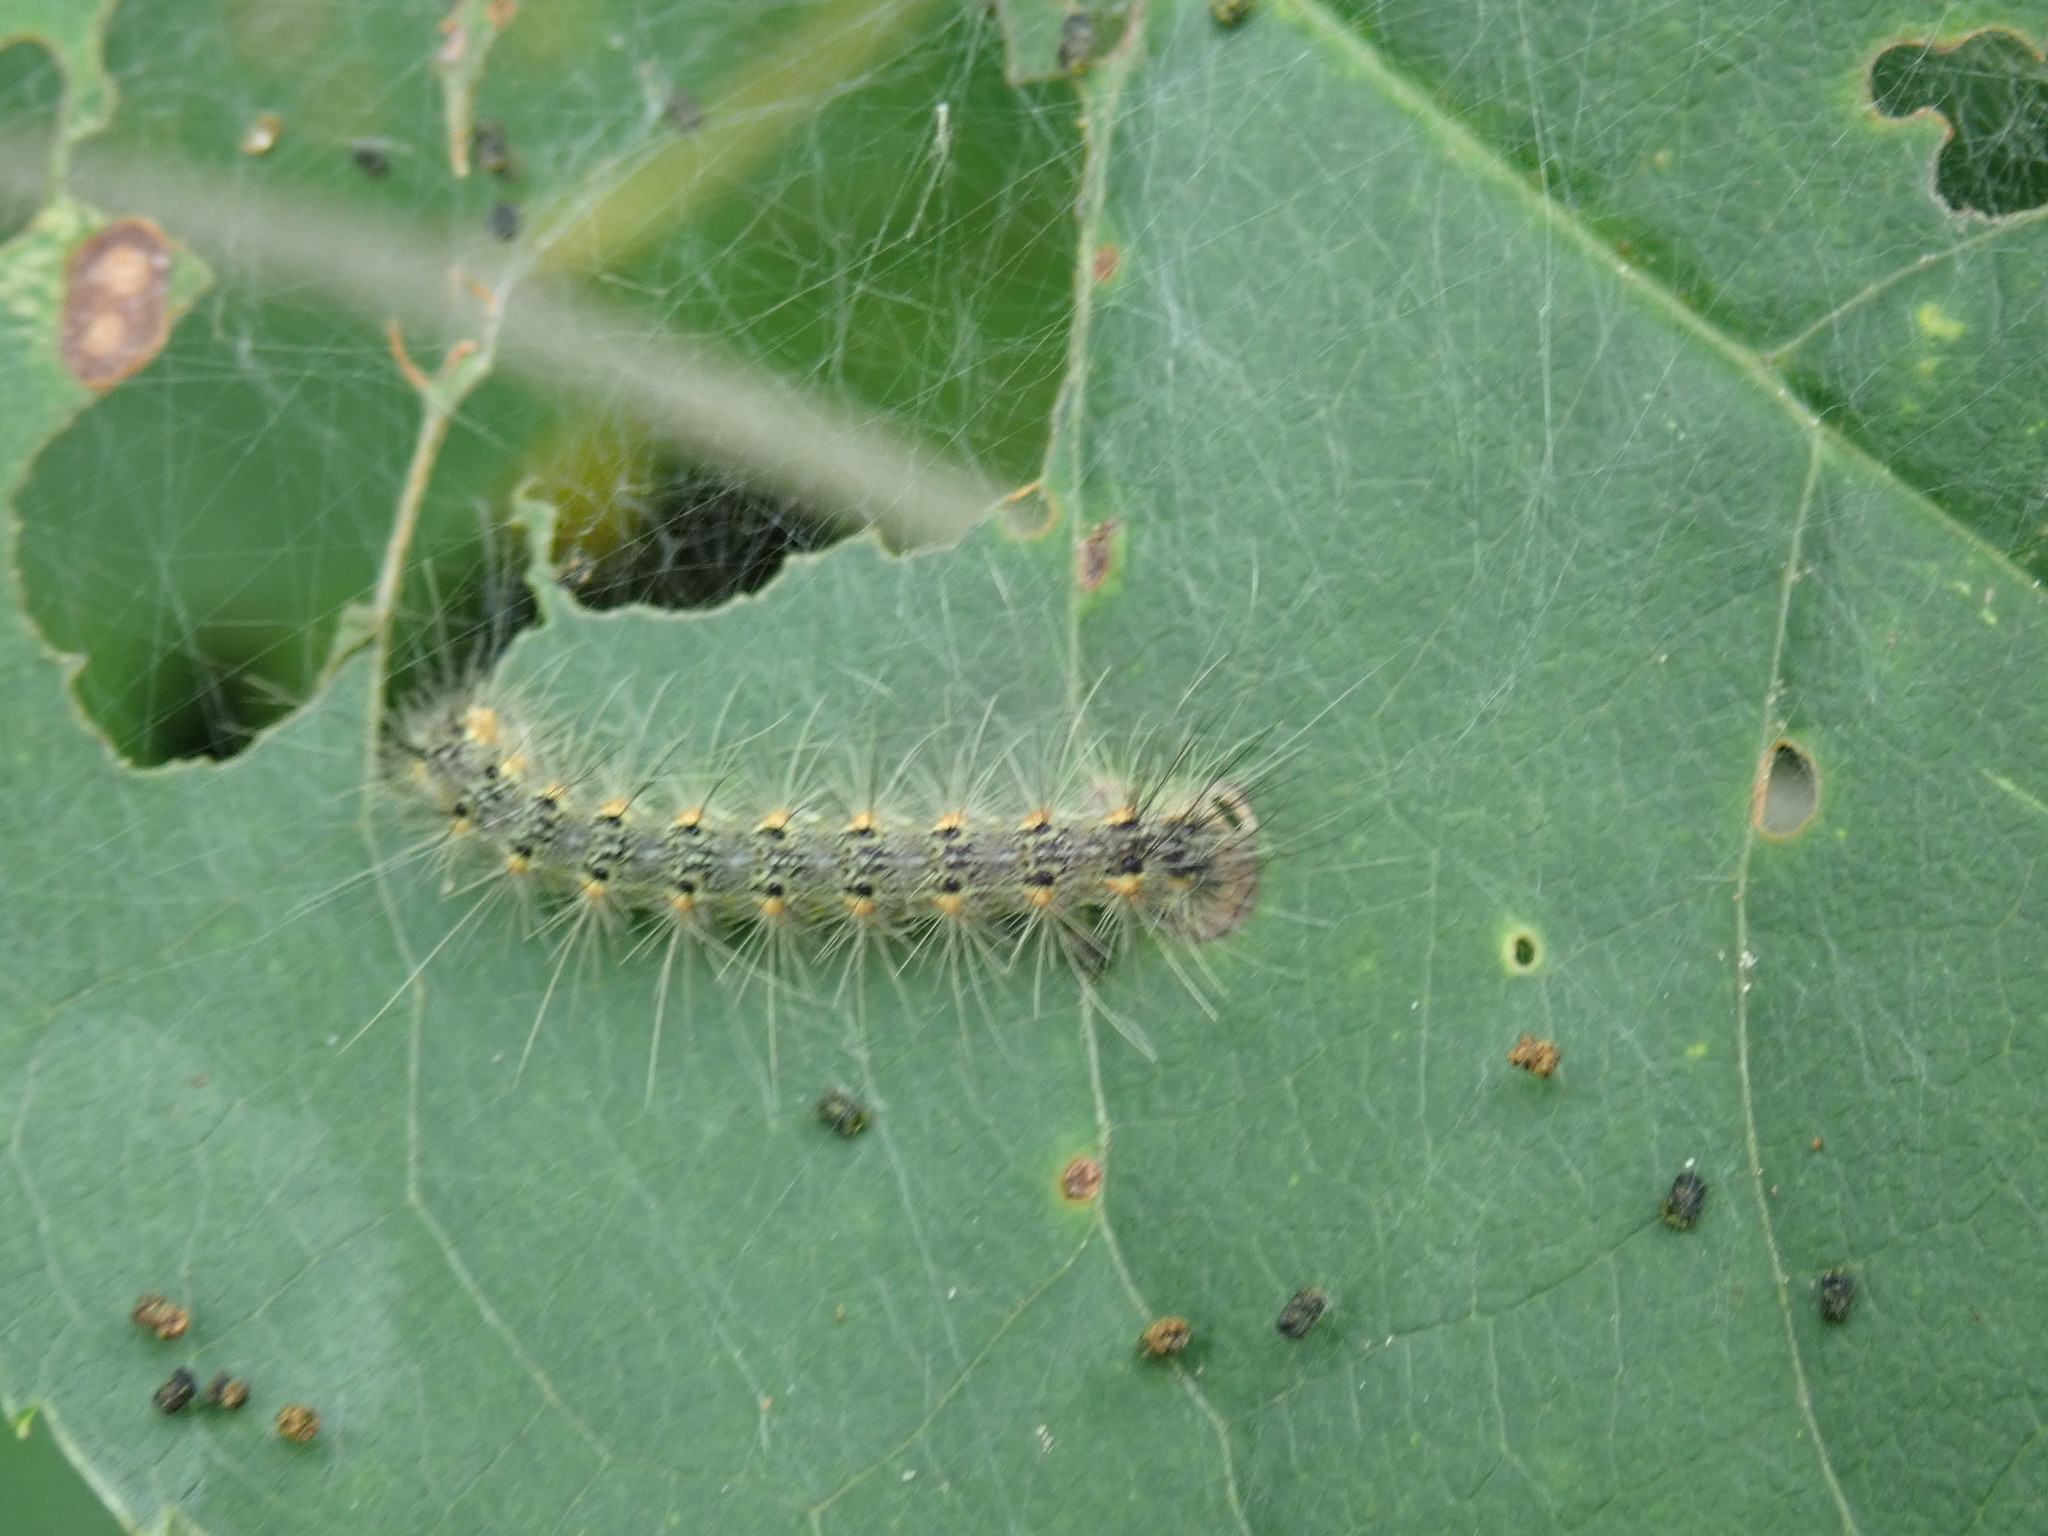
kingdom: Animalia
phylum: Arthropoda
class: Insecta
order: Lepidoptera
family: Erebidae
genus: Hyphantria
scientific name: Hyphantria cunea
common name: American white moth
